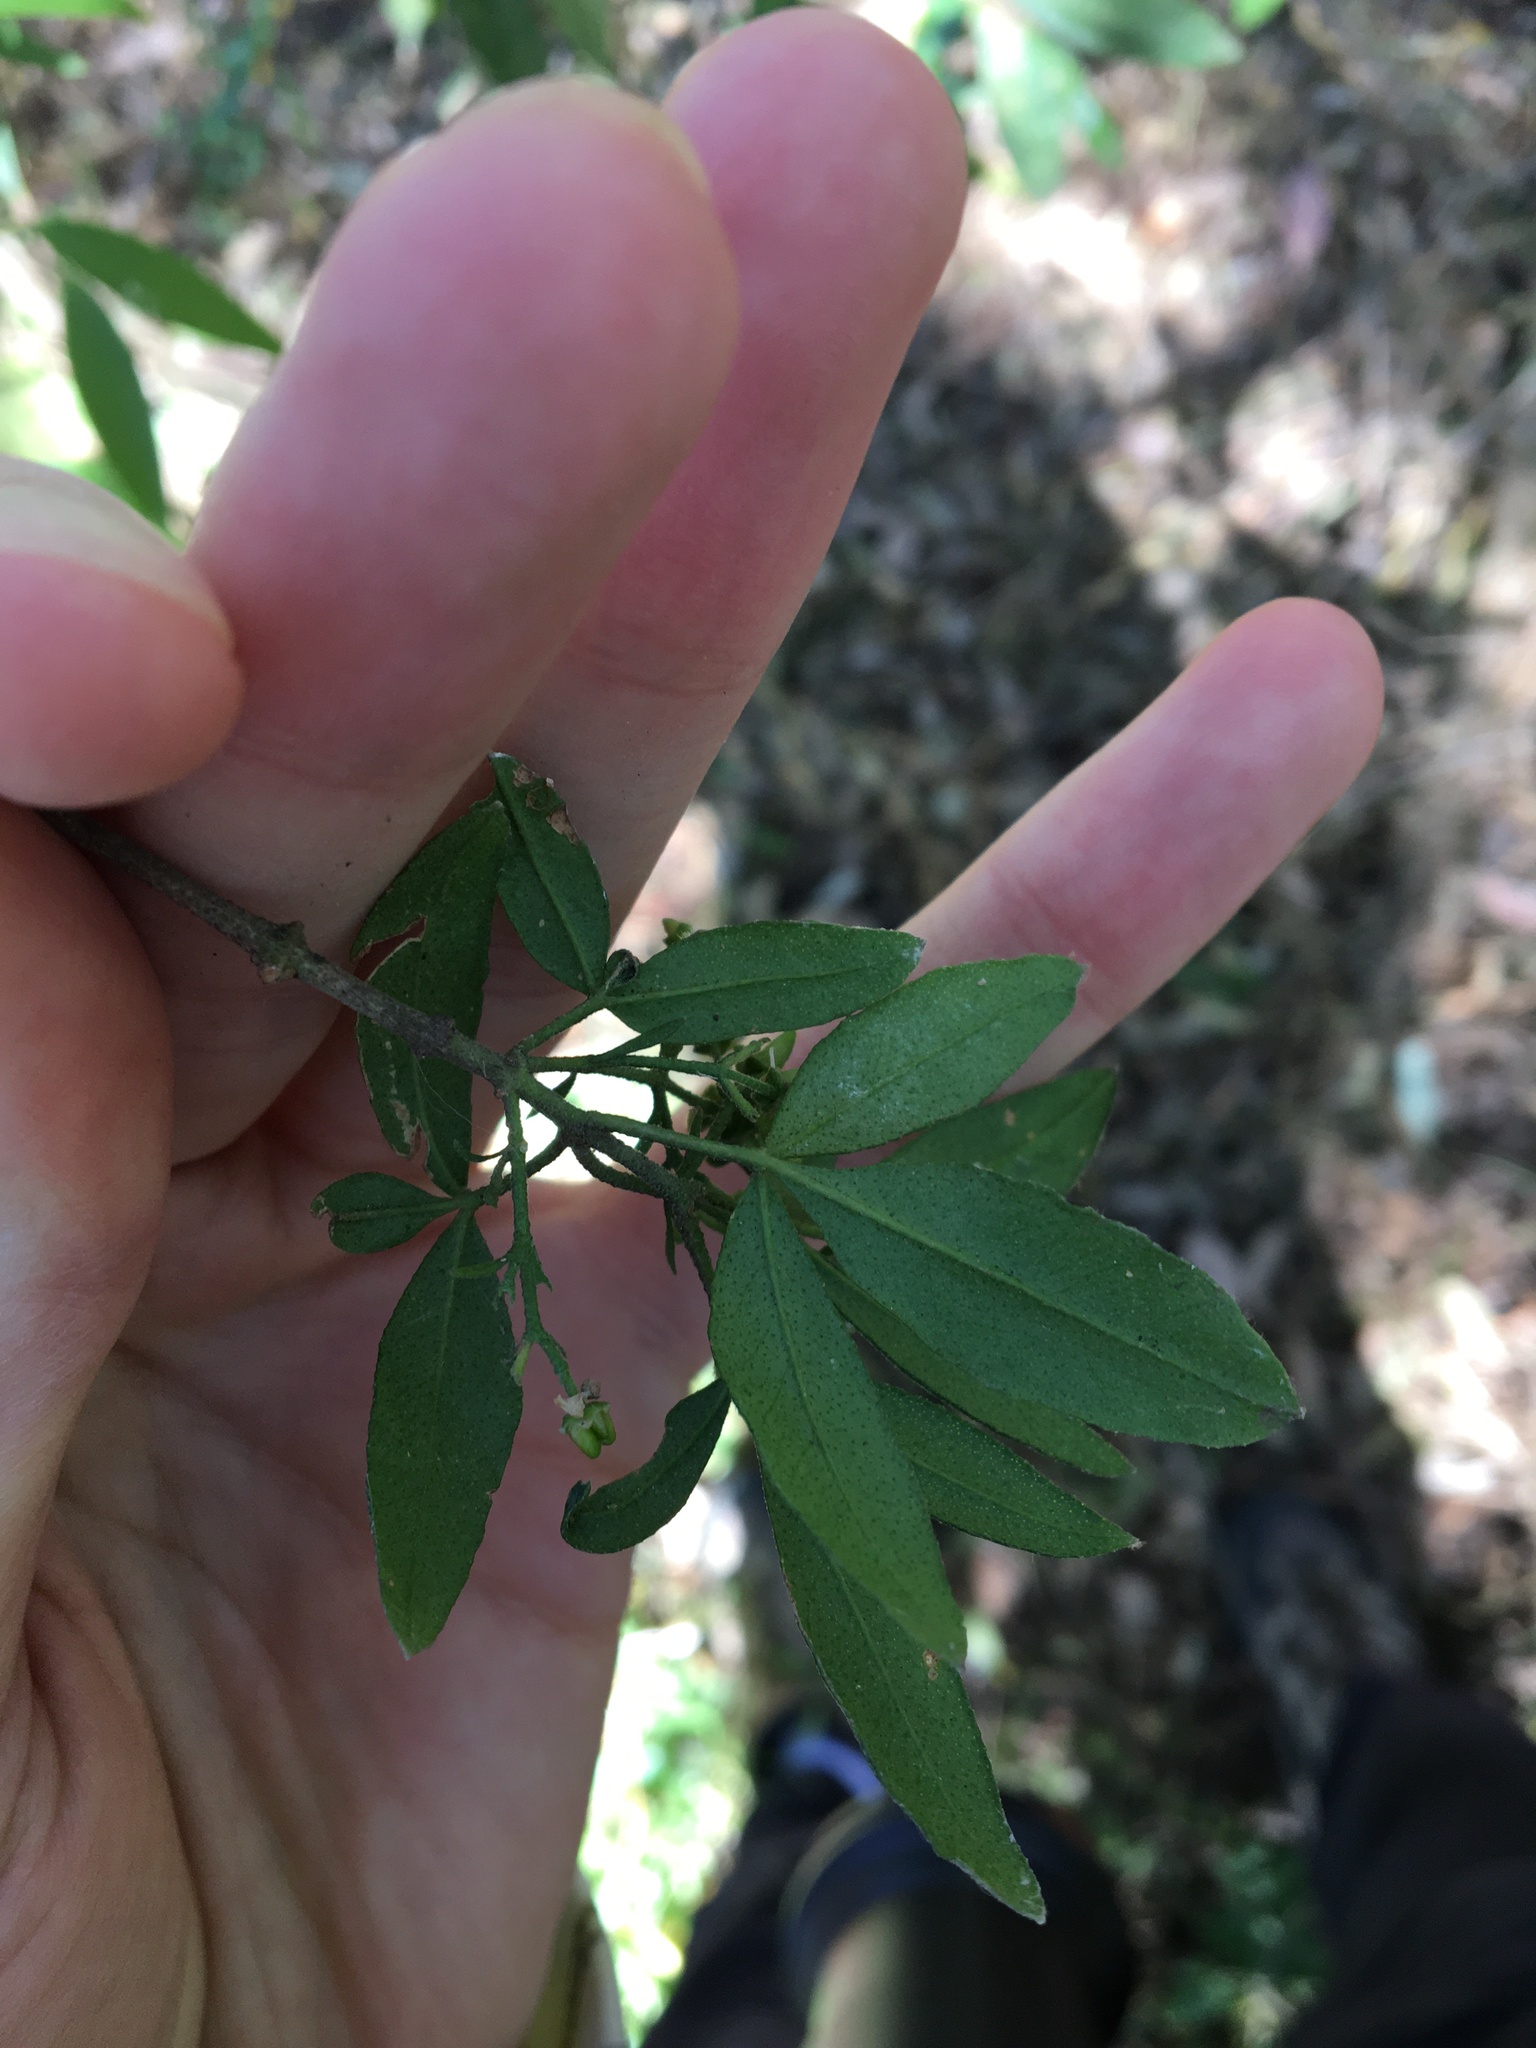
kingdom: Plantae
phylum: Tracheophyta
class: Magnoliopsida
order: Sapindales
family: Rutaceae
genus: Zieria
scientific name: Zieria smithii
